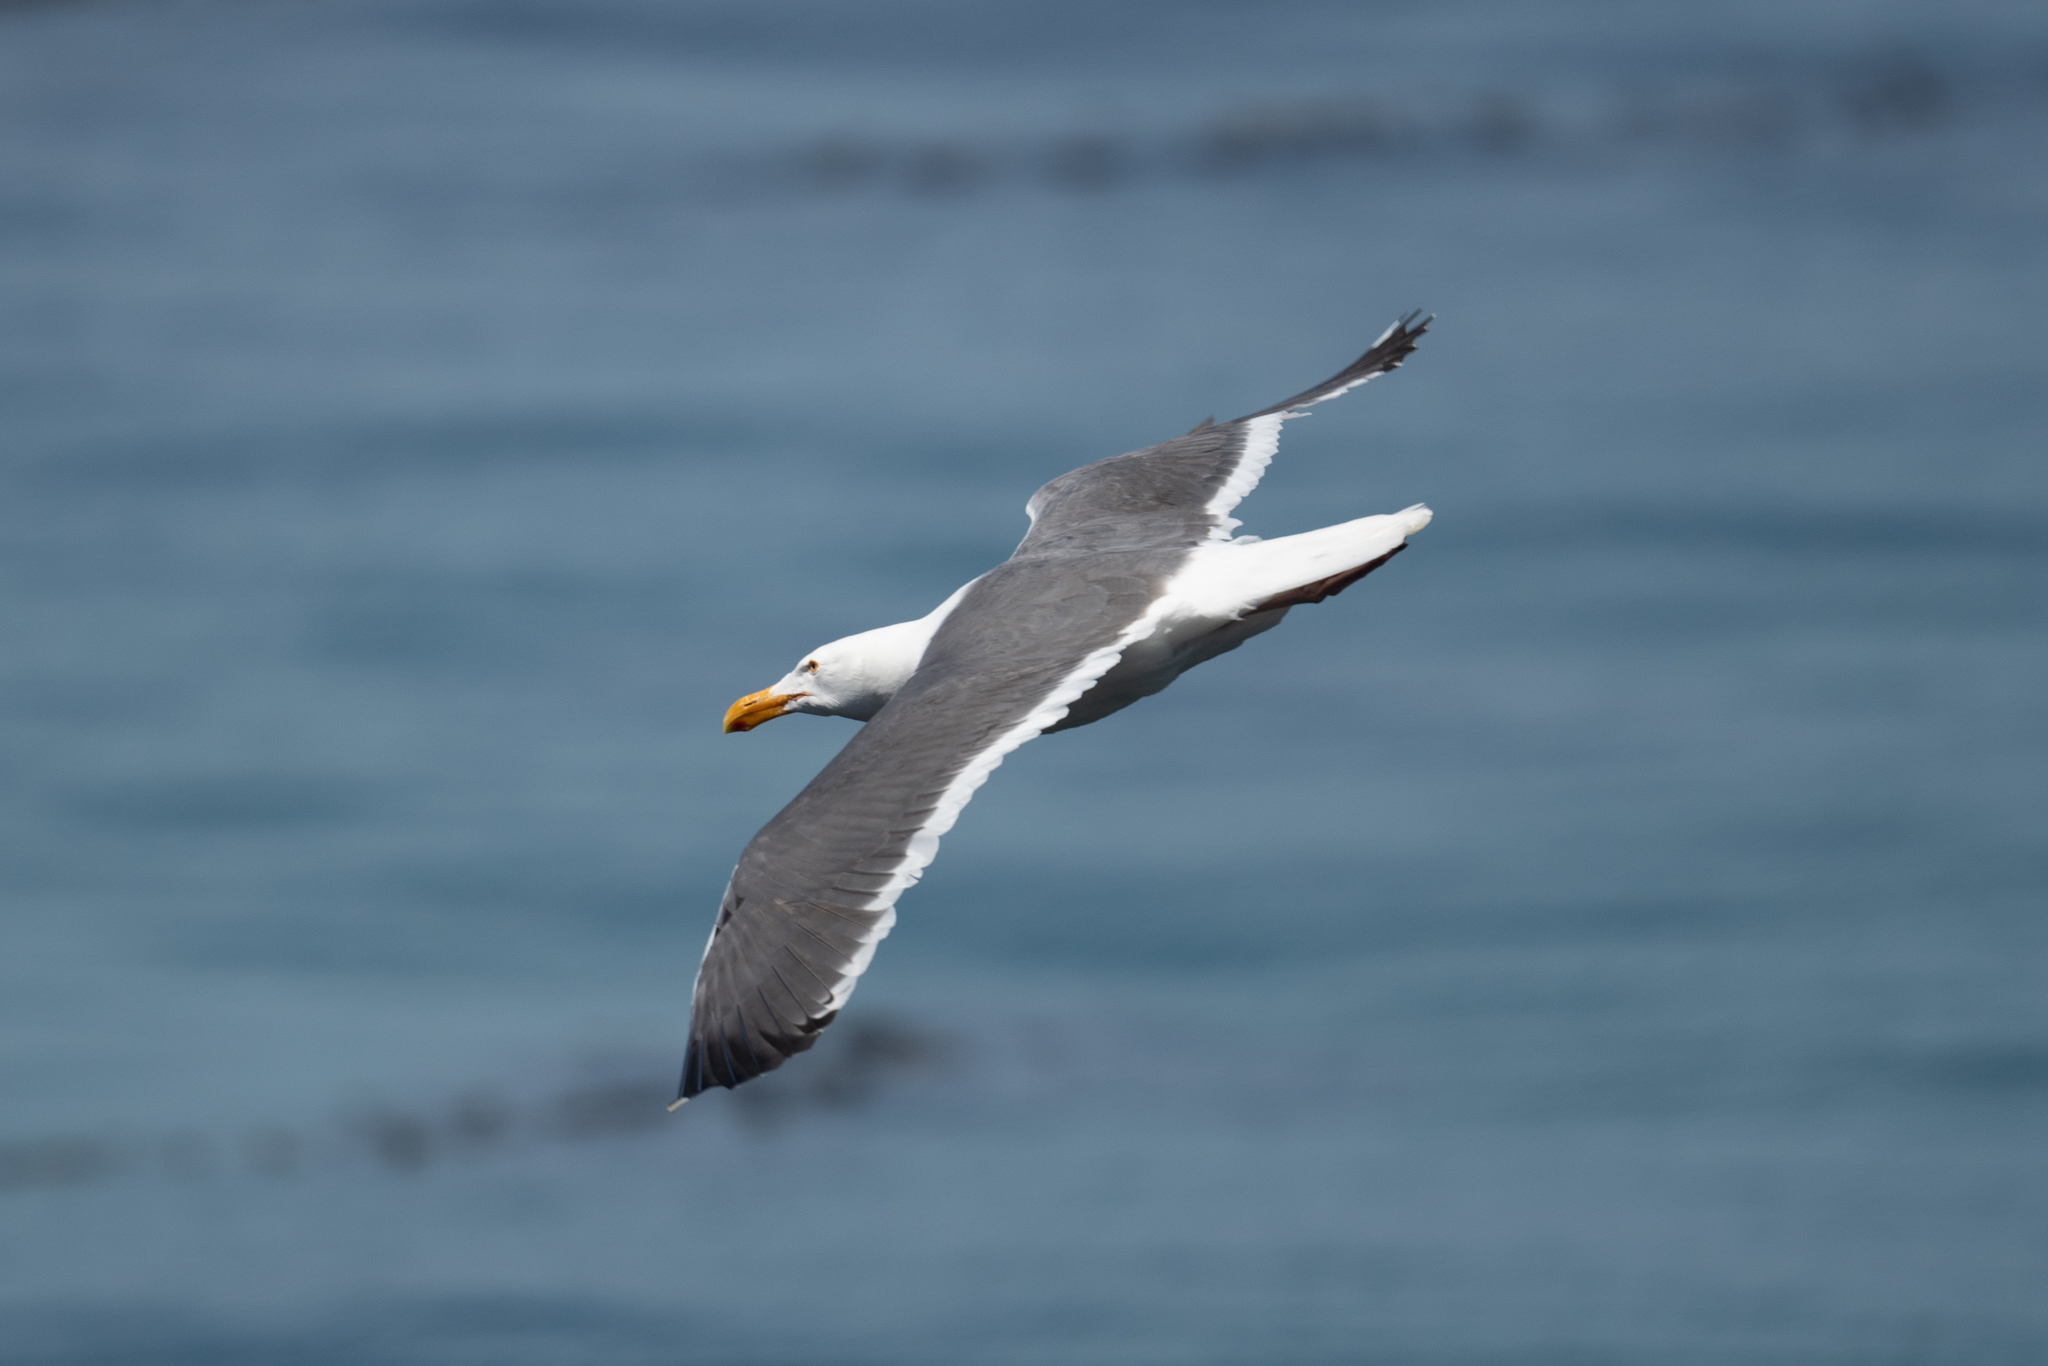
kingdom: Animalia
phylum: Chordata
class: Aves
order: Charadriiformes
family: Laridae
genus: Larus
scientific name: Larus occidentalis
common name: Western gull
